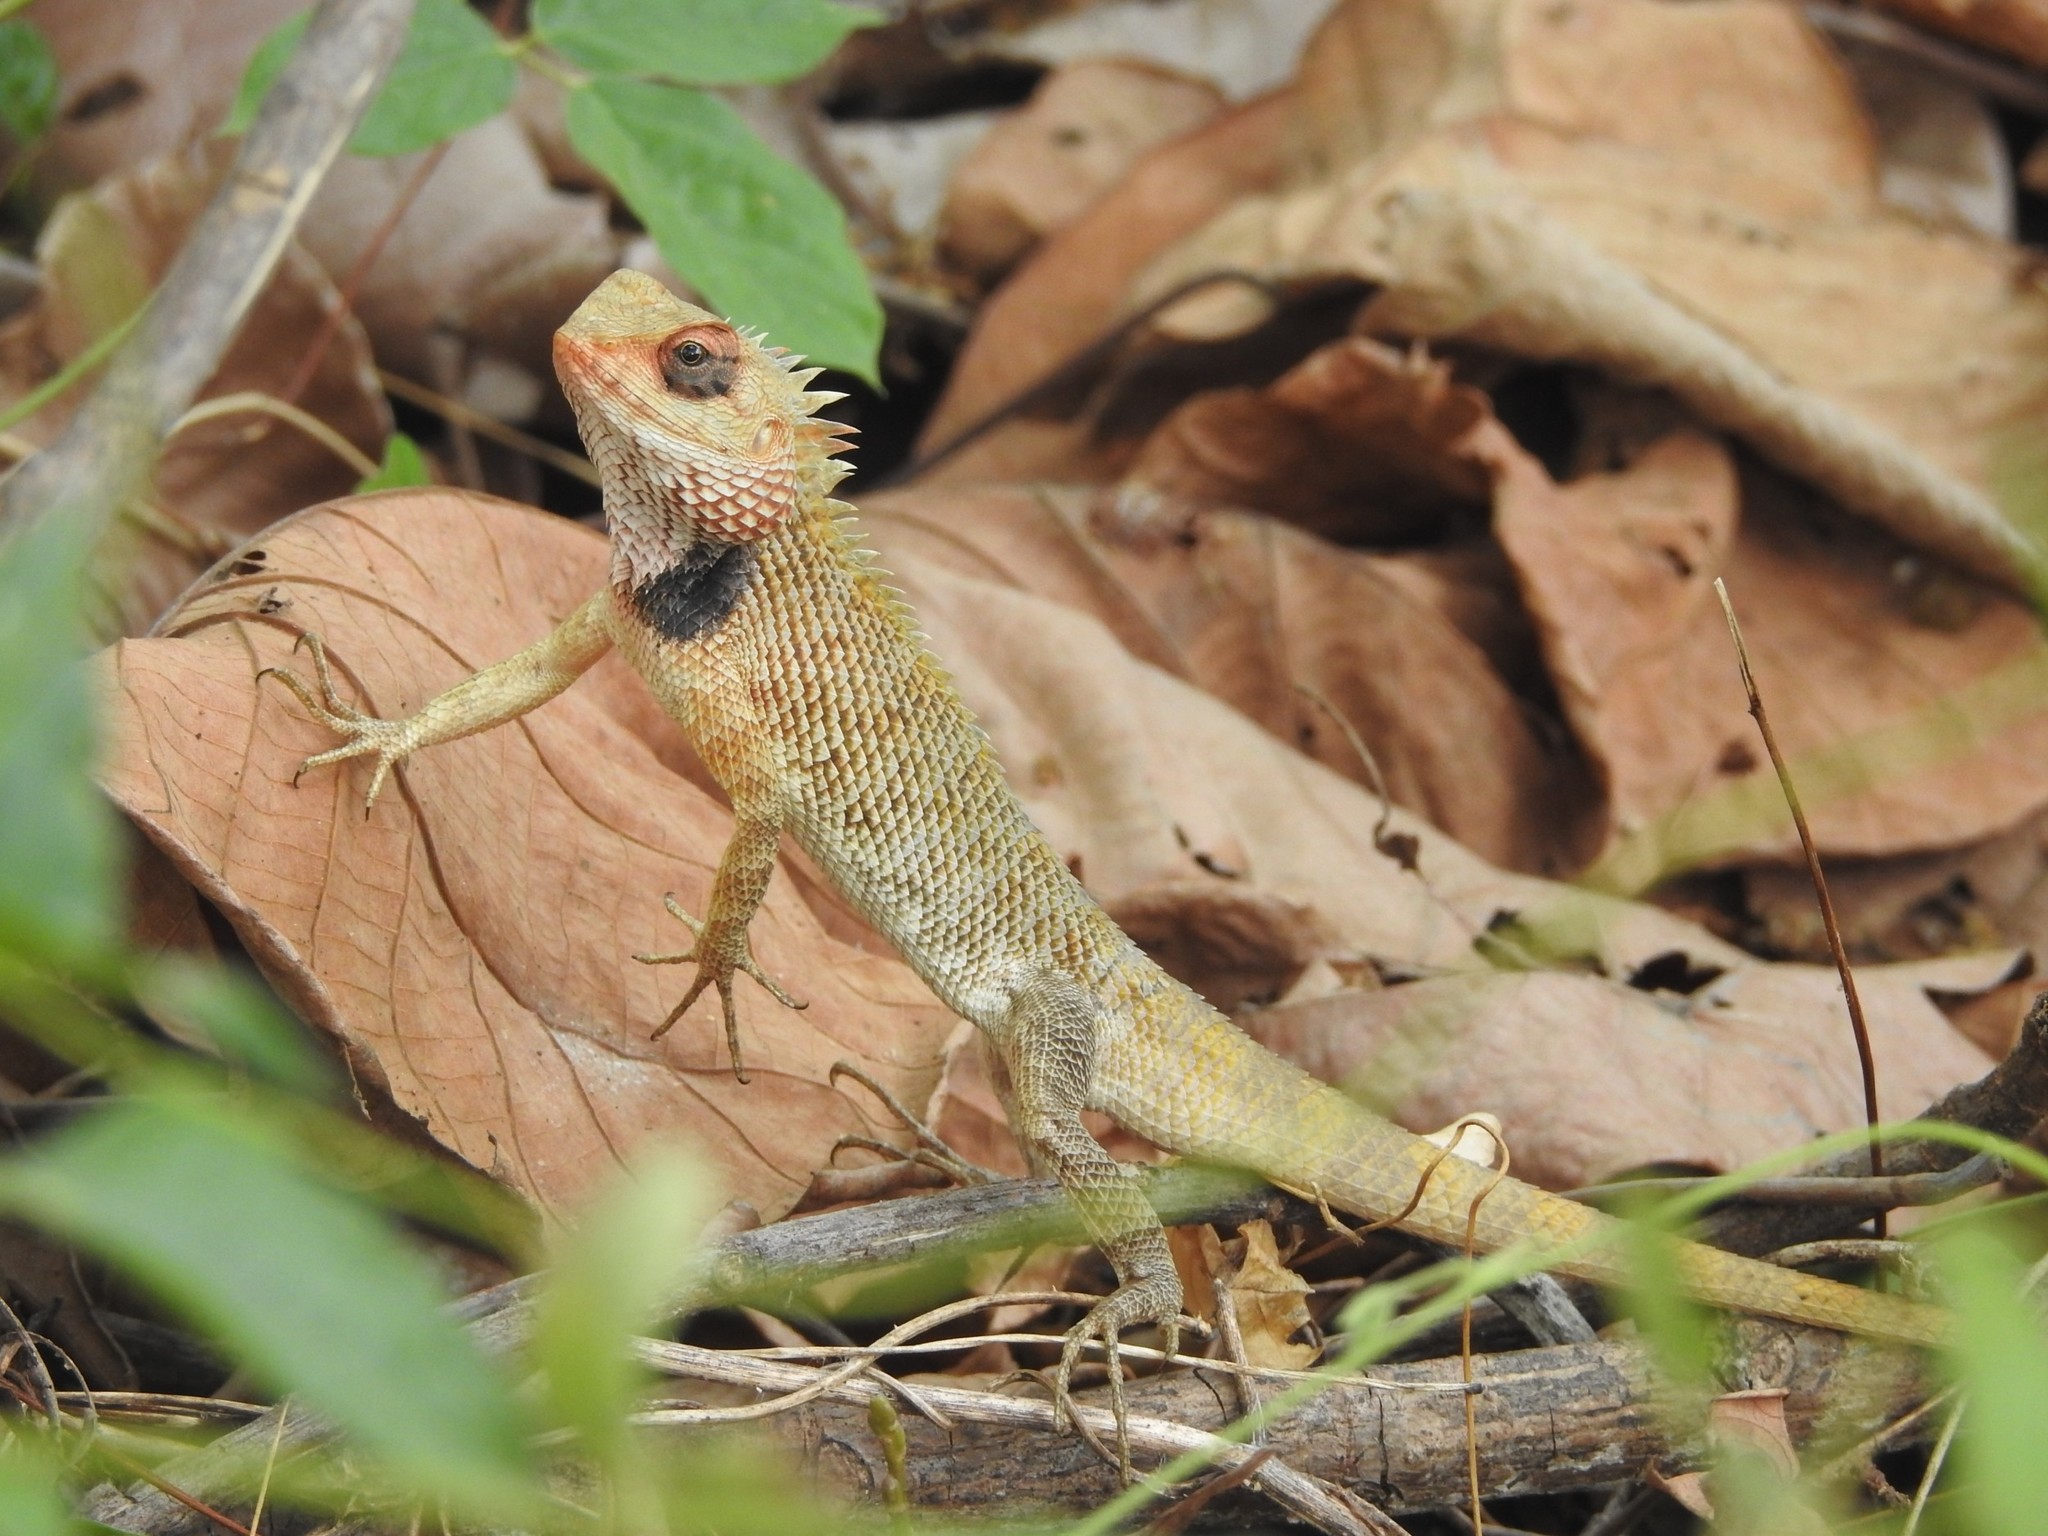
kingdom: Animalia
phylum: Chordata
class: Squamata
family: Agamidae
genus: Calotes
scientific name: Calotes versicolor
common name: Oriental garden lizard
